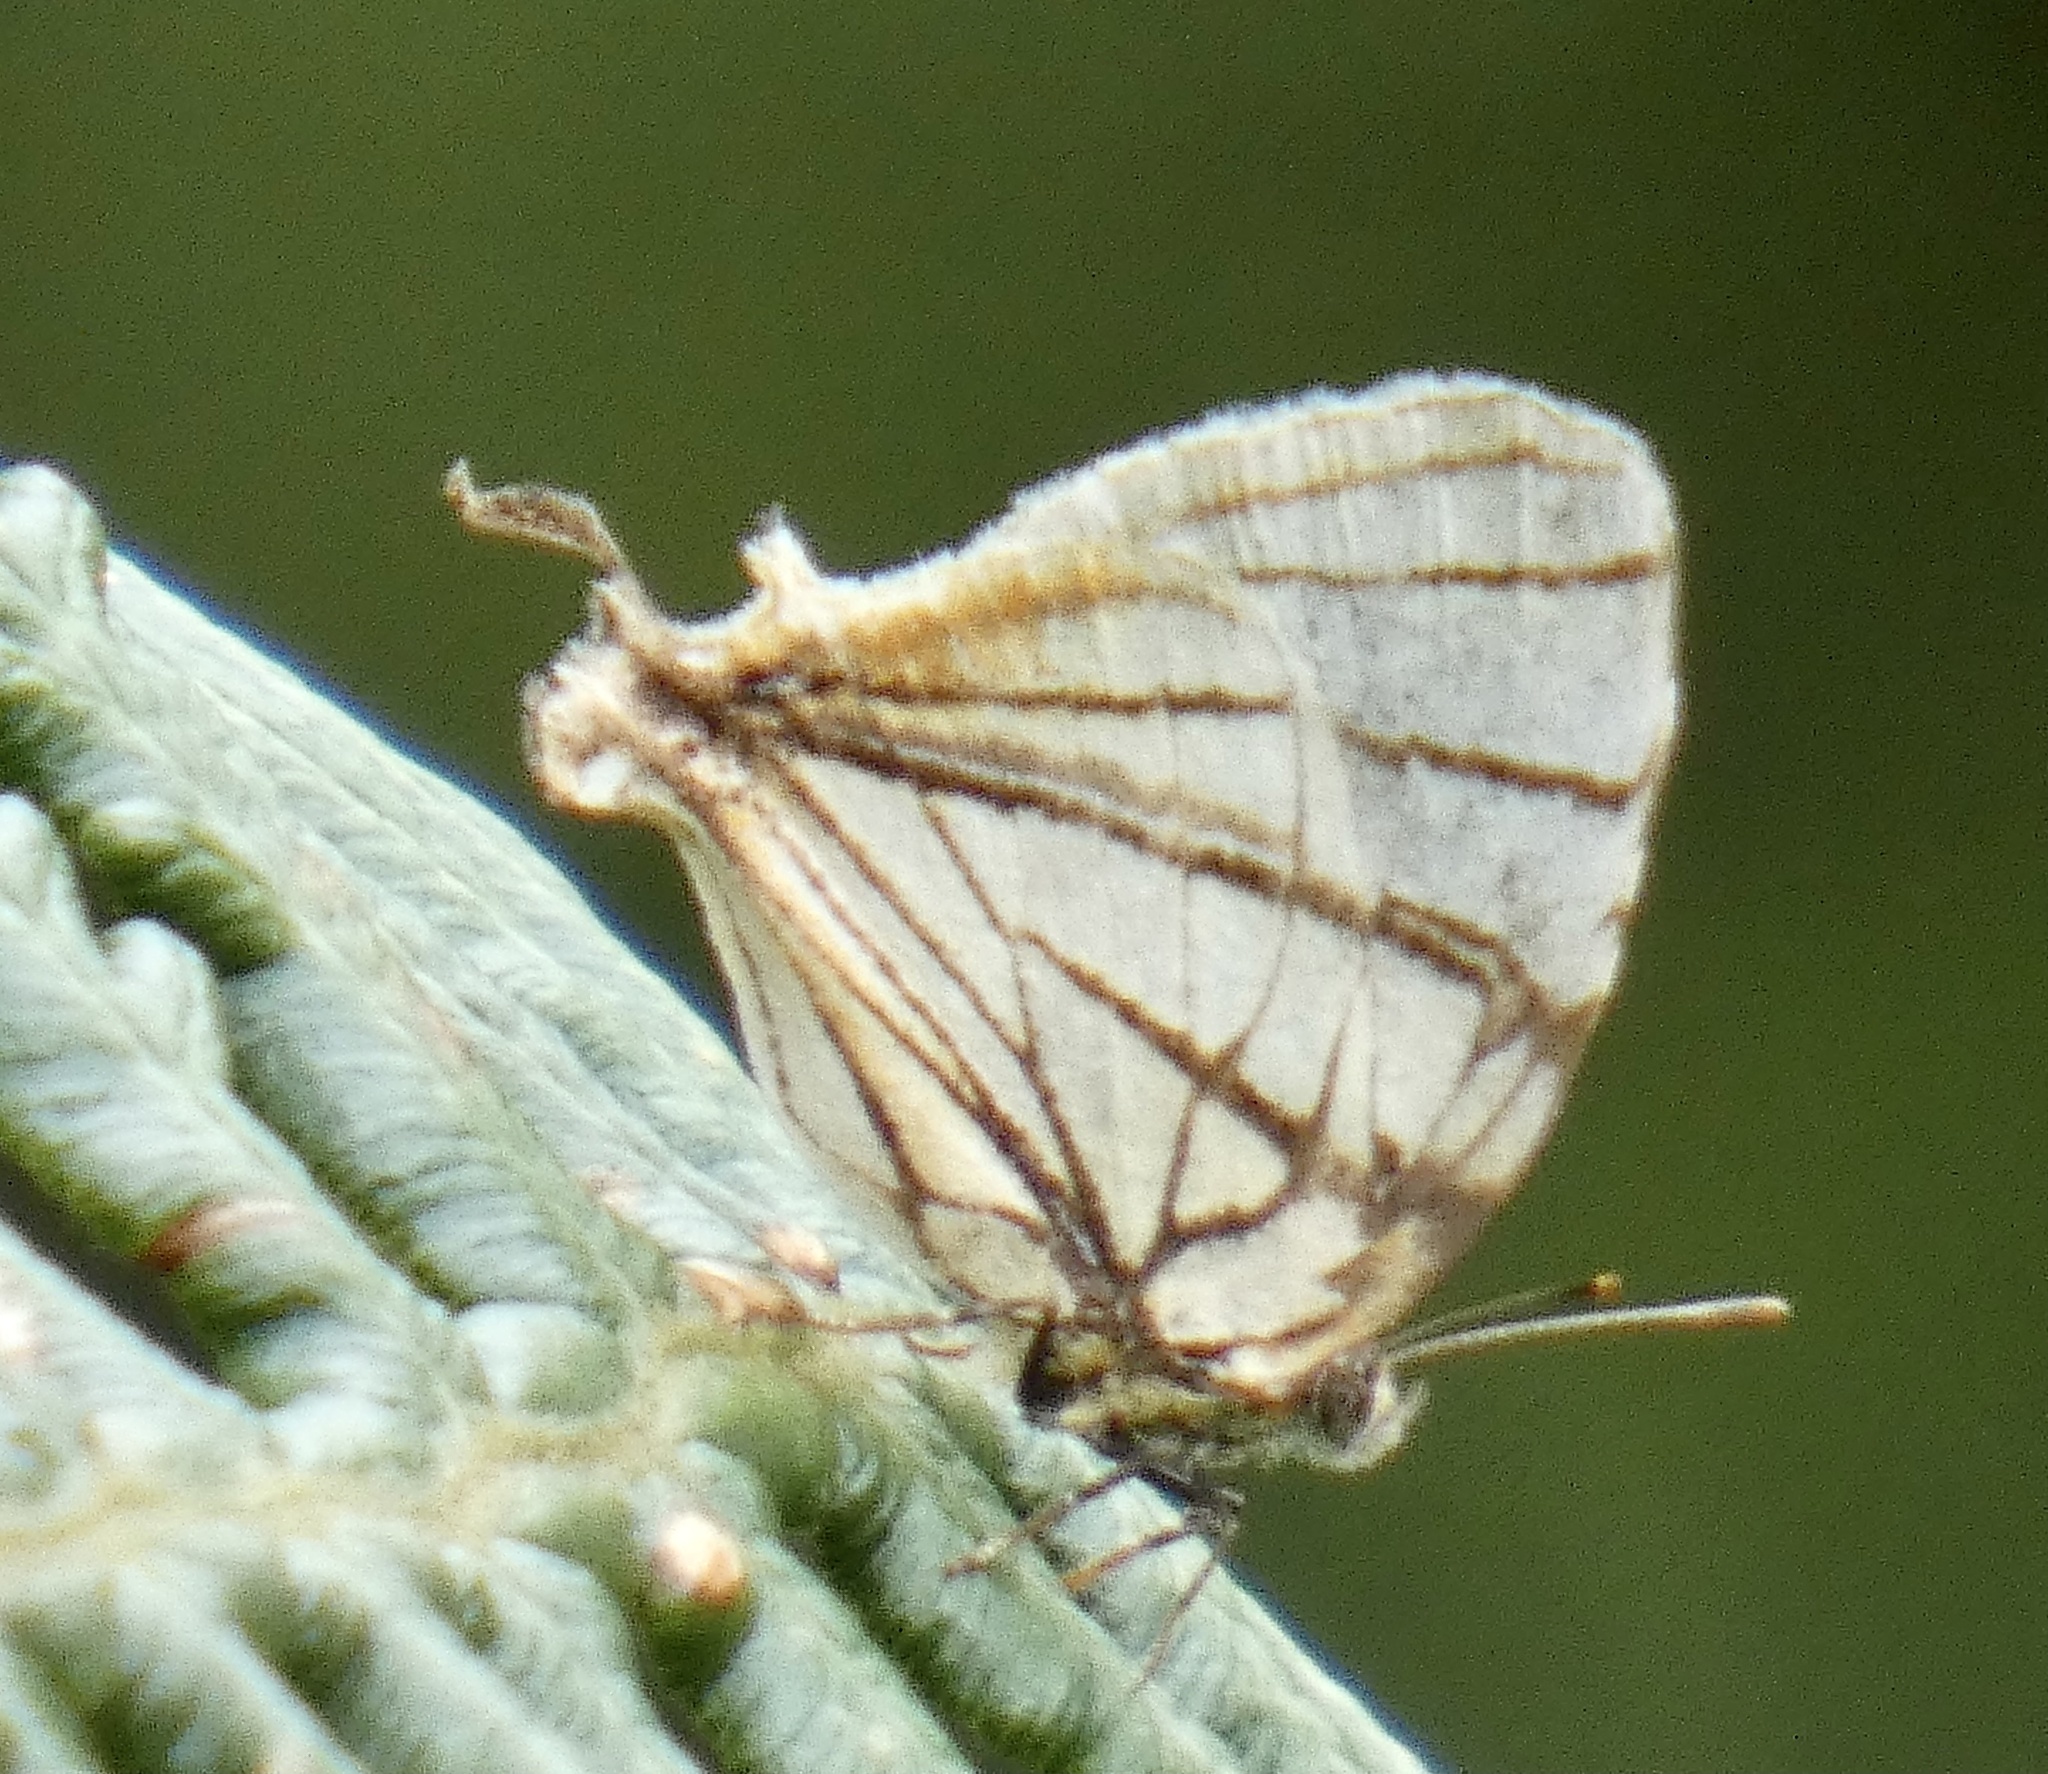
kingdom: Animalia
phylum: Arthropoda
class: Insecta
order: Lepidoptera
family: Lycaenidae
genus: Arawacus
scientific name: Arawacus melibaeus
